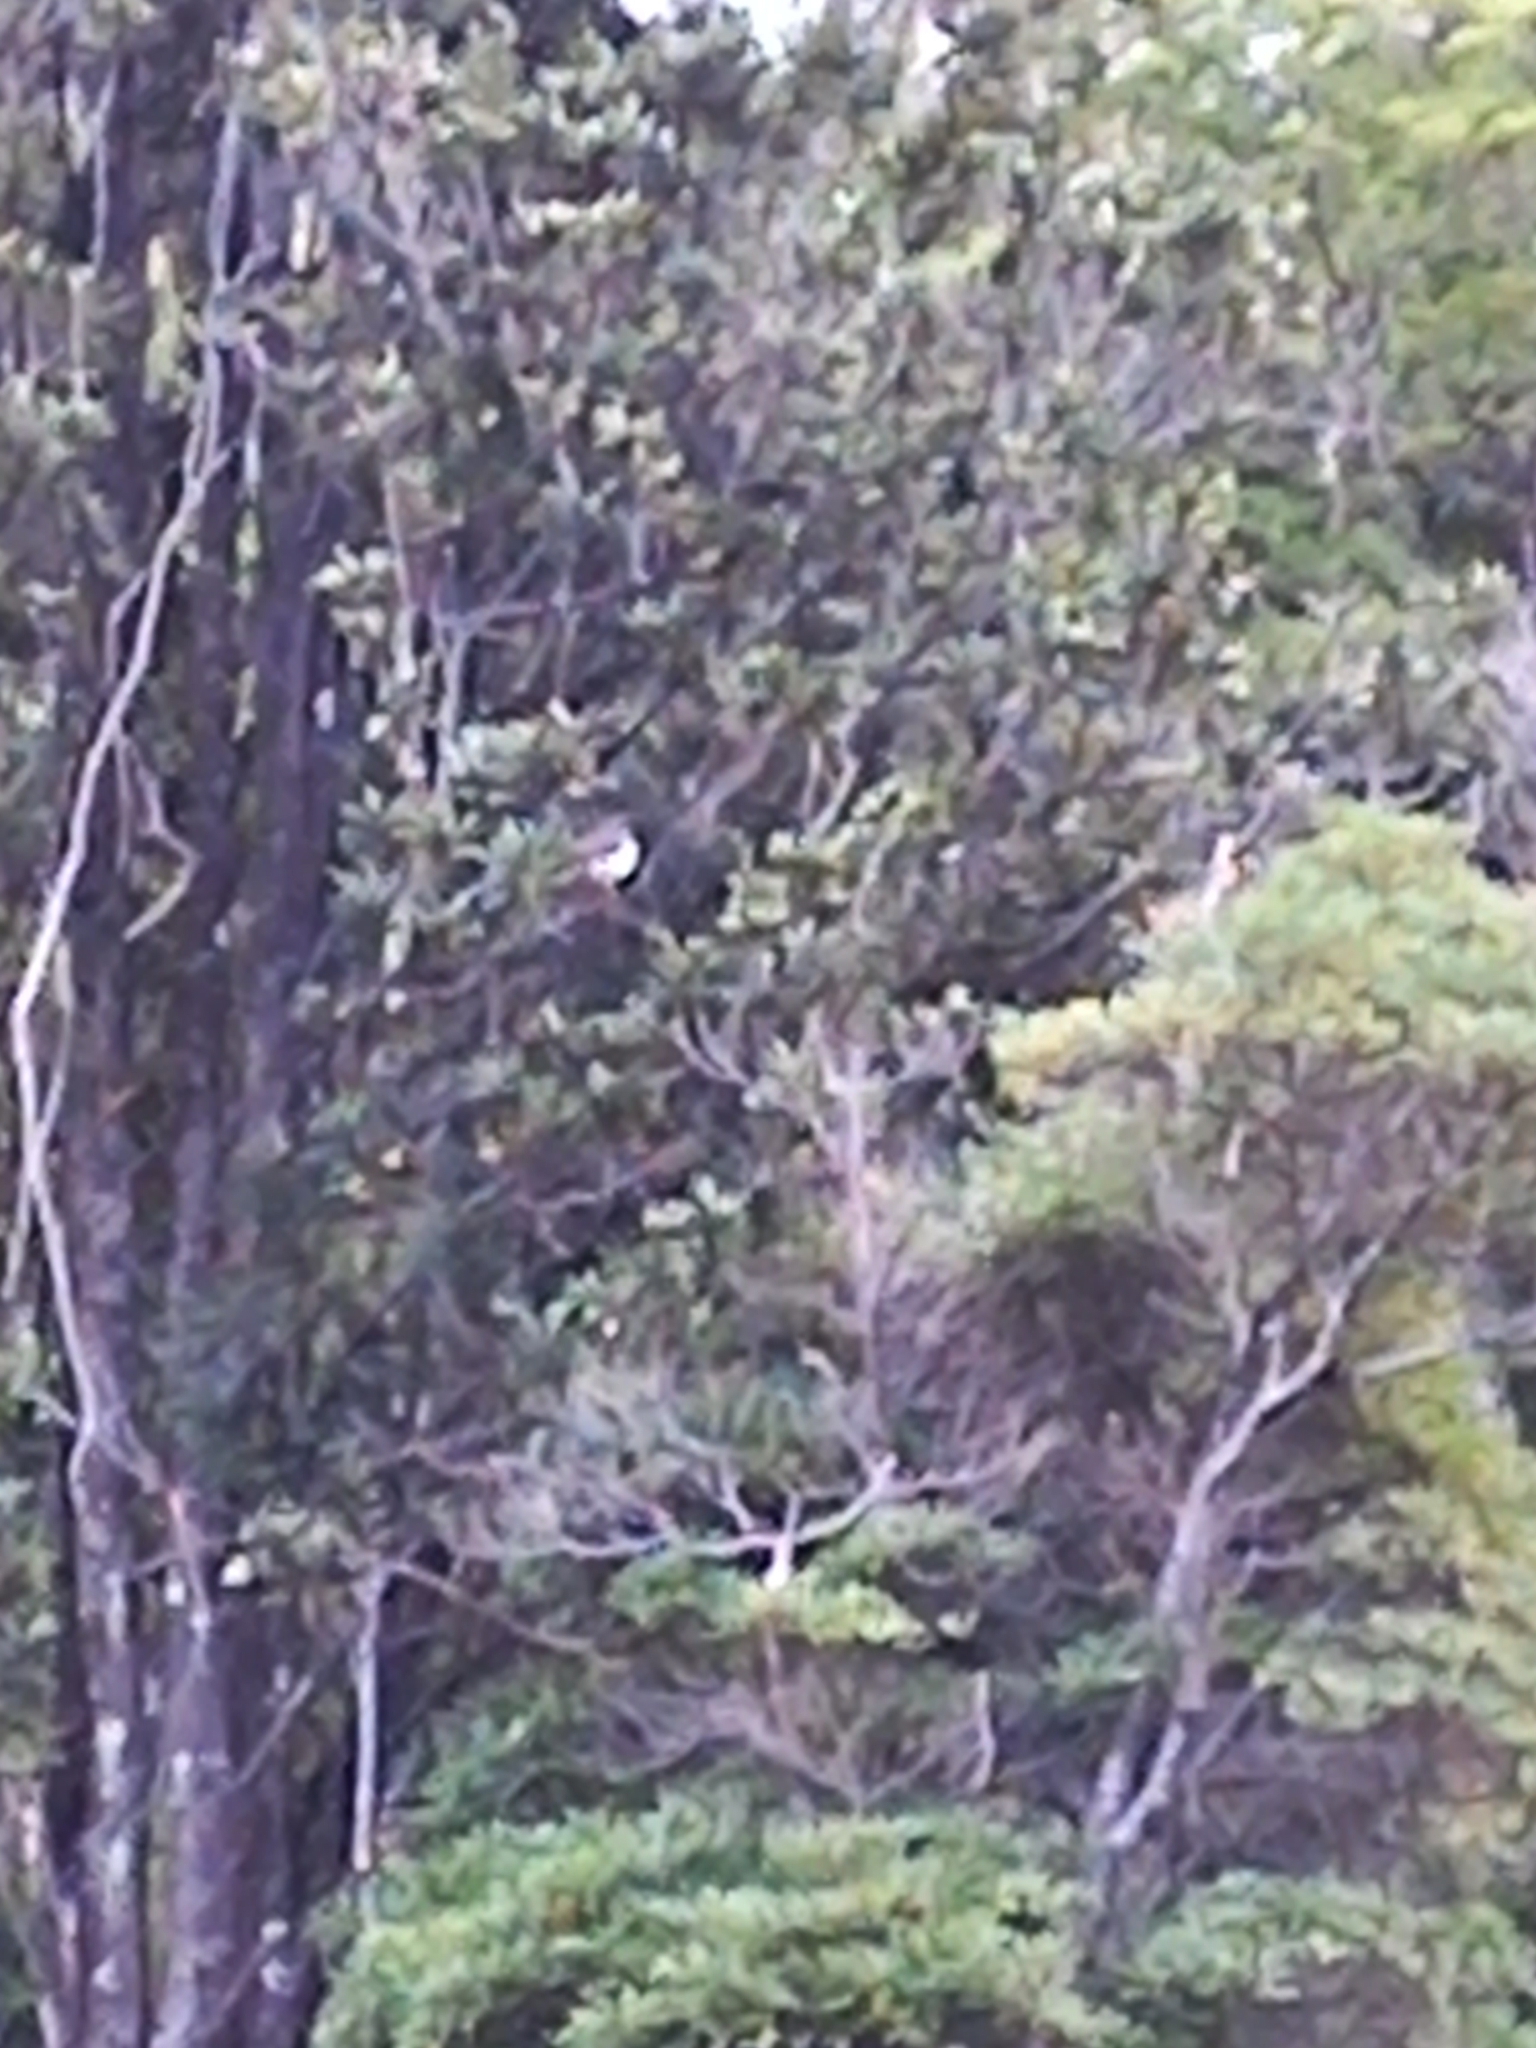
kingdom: Animalia
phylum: Chordata
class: Aves
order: Columbiformes
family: Columbidae
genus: Hemiphaga
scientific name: Hemiphaga novaeseelandiae
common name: New zealand pigeon
